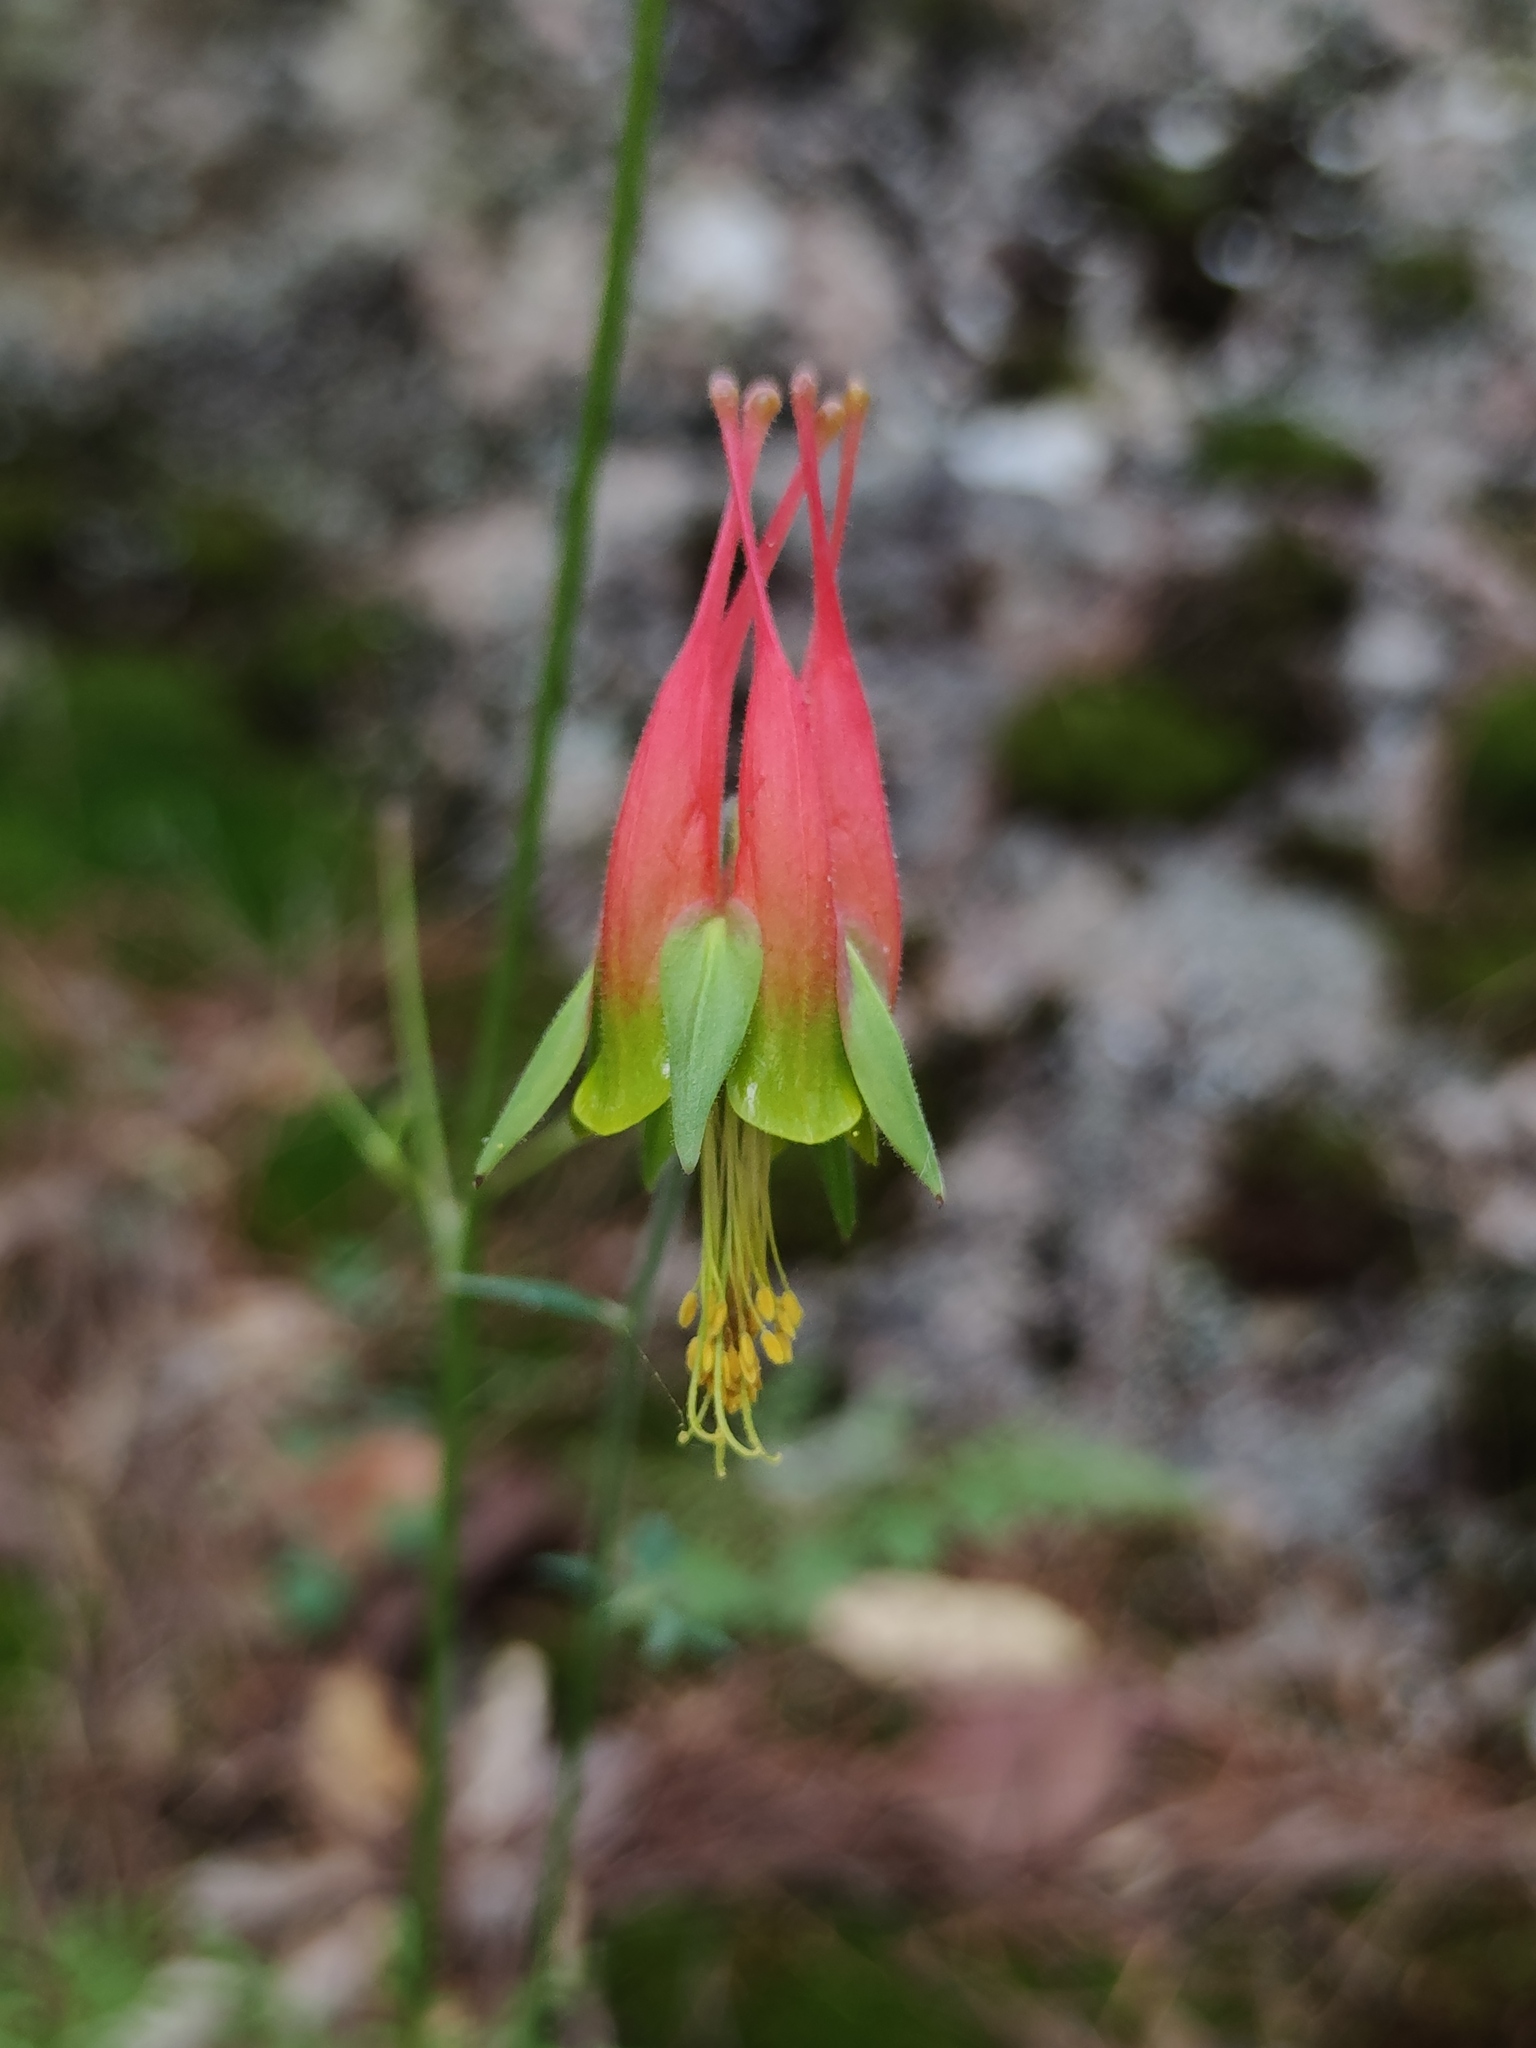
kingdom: Plantae
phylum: Tracheophyta
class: Magnoliopsida
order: Ranunculales
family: Ranunculaceae
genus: Aquilegia
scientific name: Aquilegia skinneri
